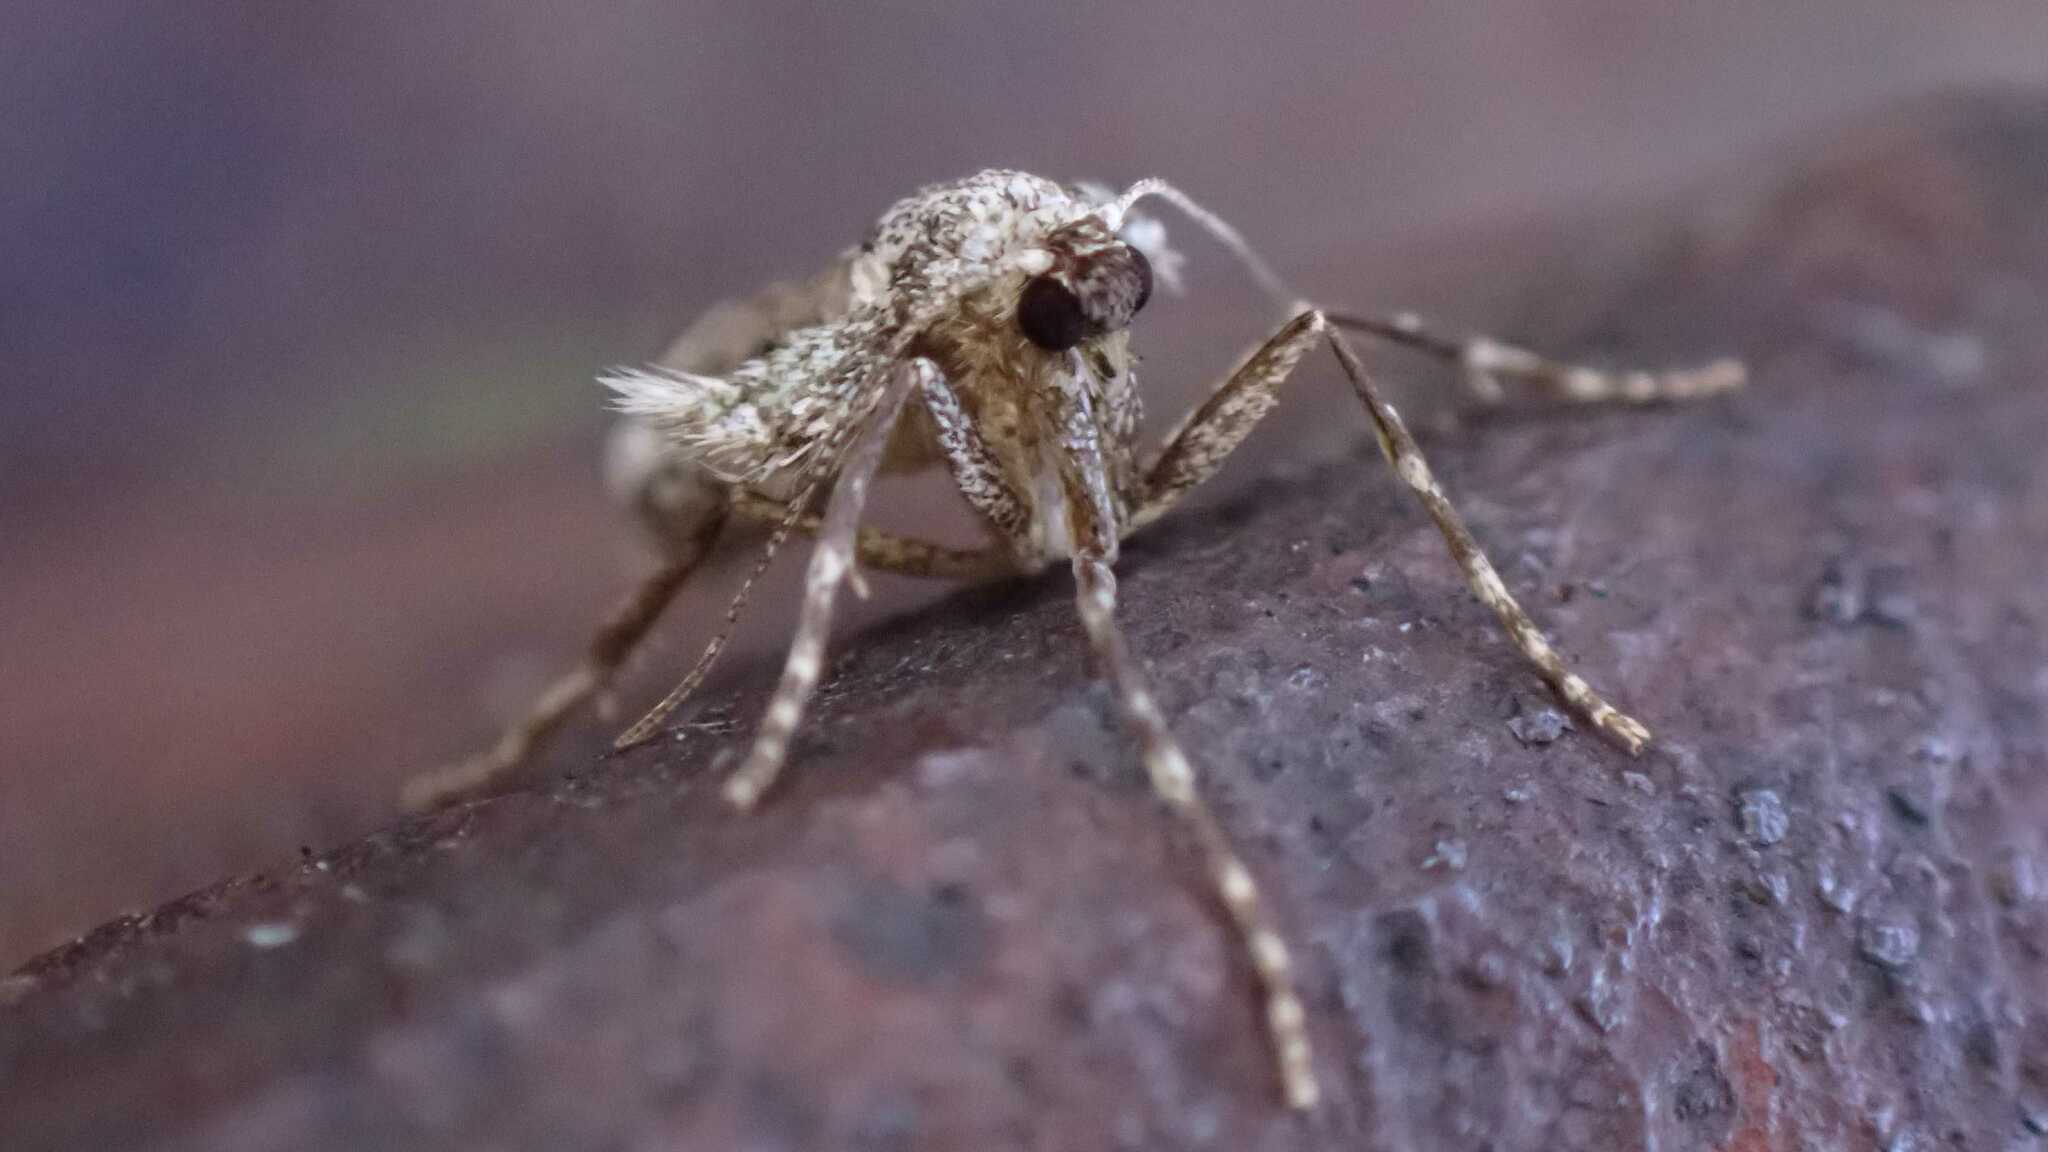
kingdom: Animalia
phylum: Arthropoda
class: Insecta
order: Lepidoptera
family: Geometridae
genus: Operophtera
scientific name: Operophtera brumata
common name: Winter moth
